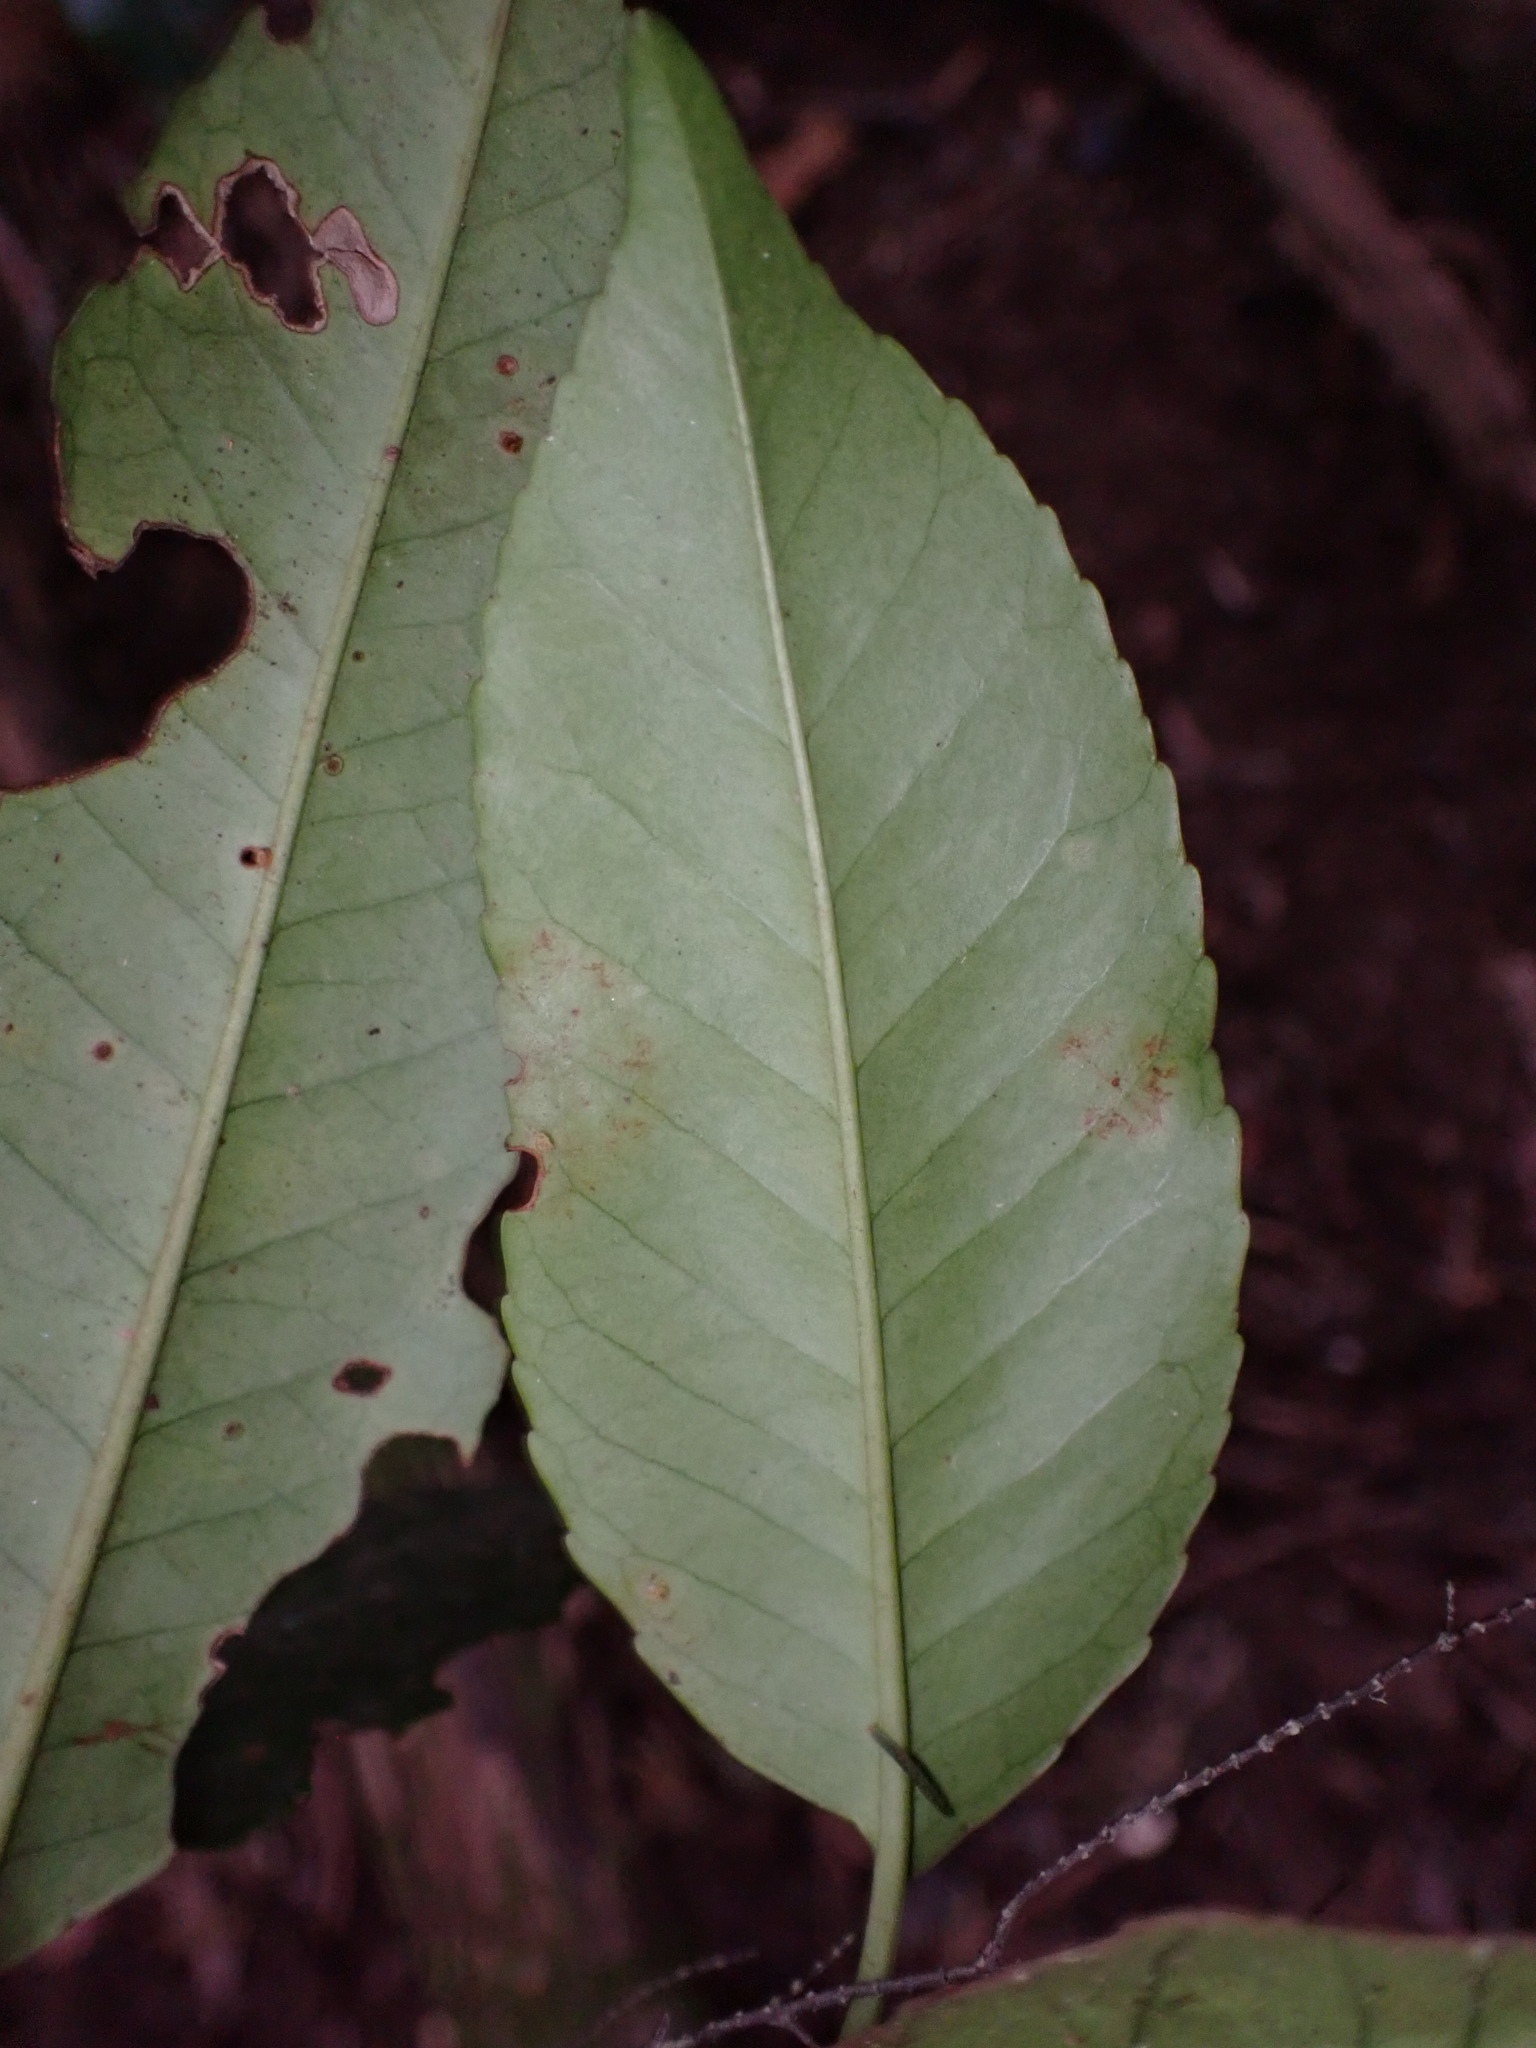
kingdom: Plantae
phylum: Tracheophyta
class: Magnoliopsida
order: Rosales
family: Rosaceae
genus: Prunus
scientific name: Prunus hixa
